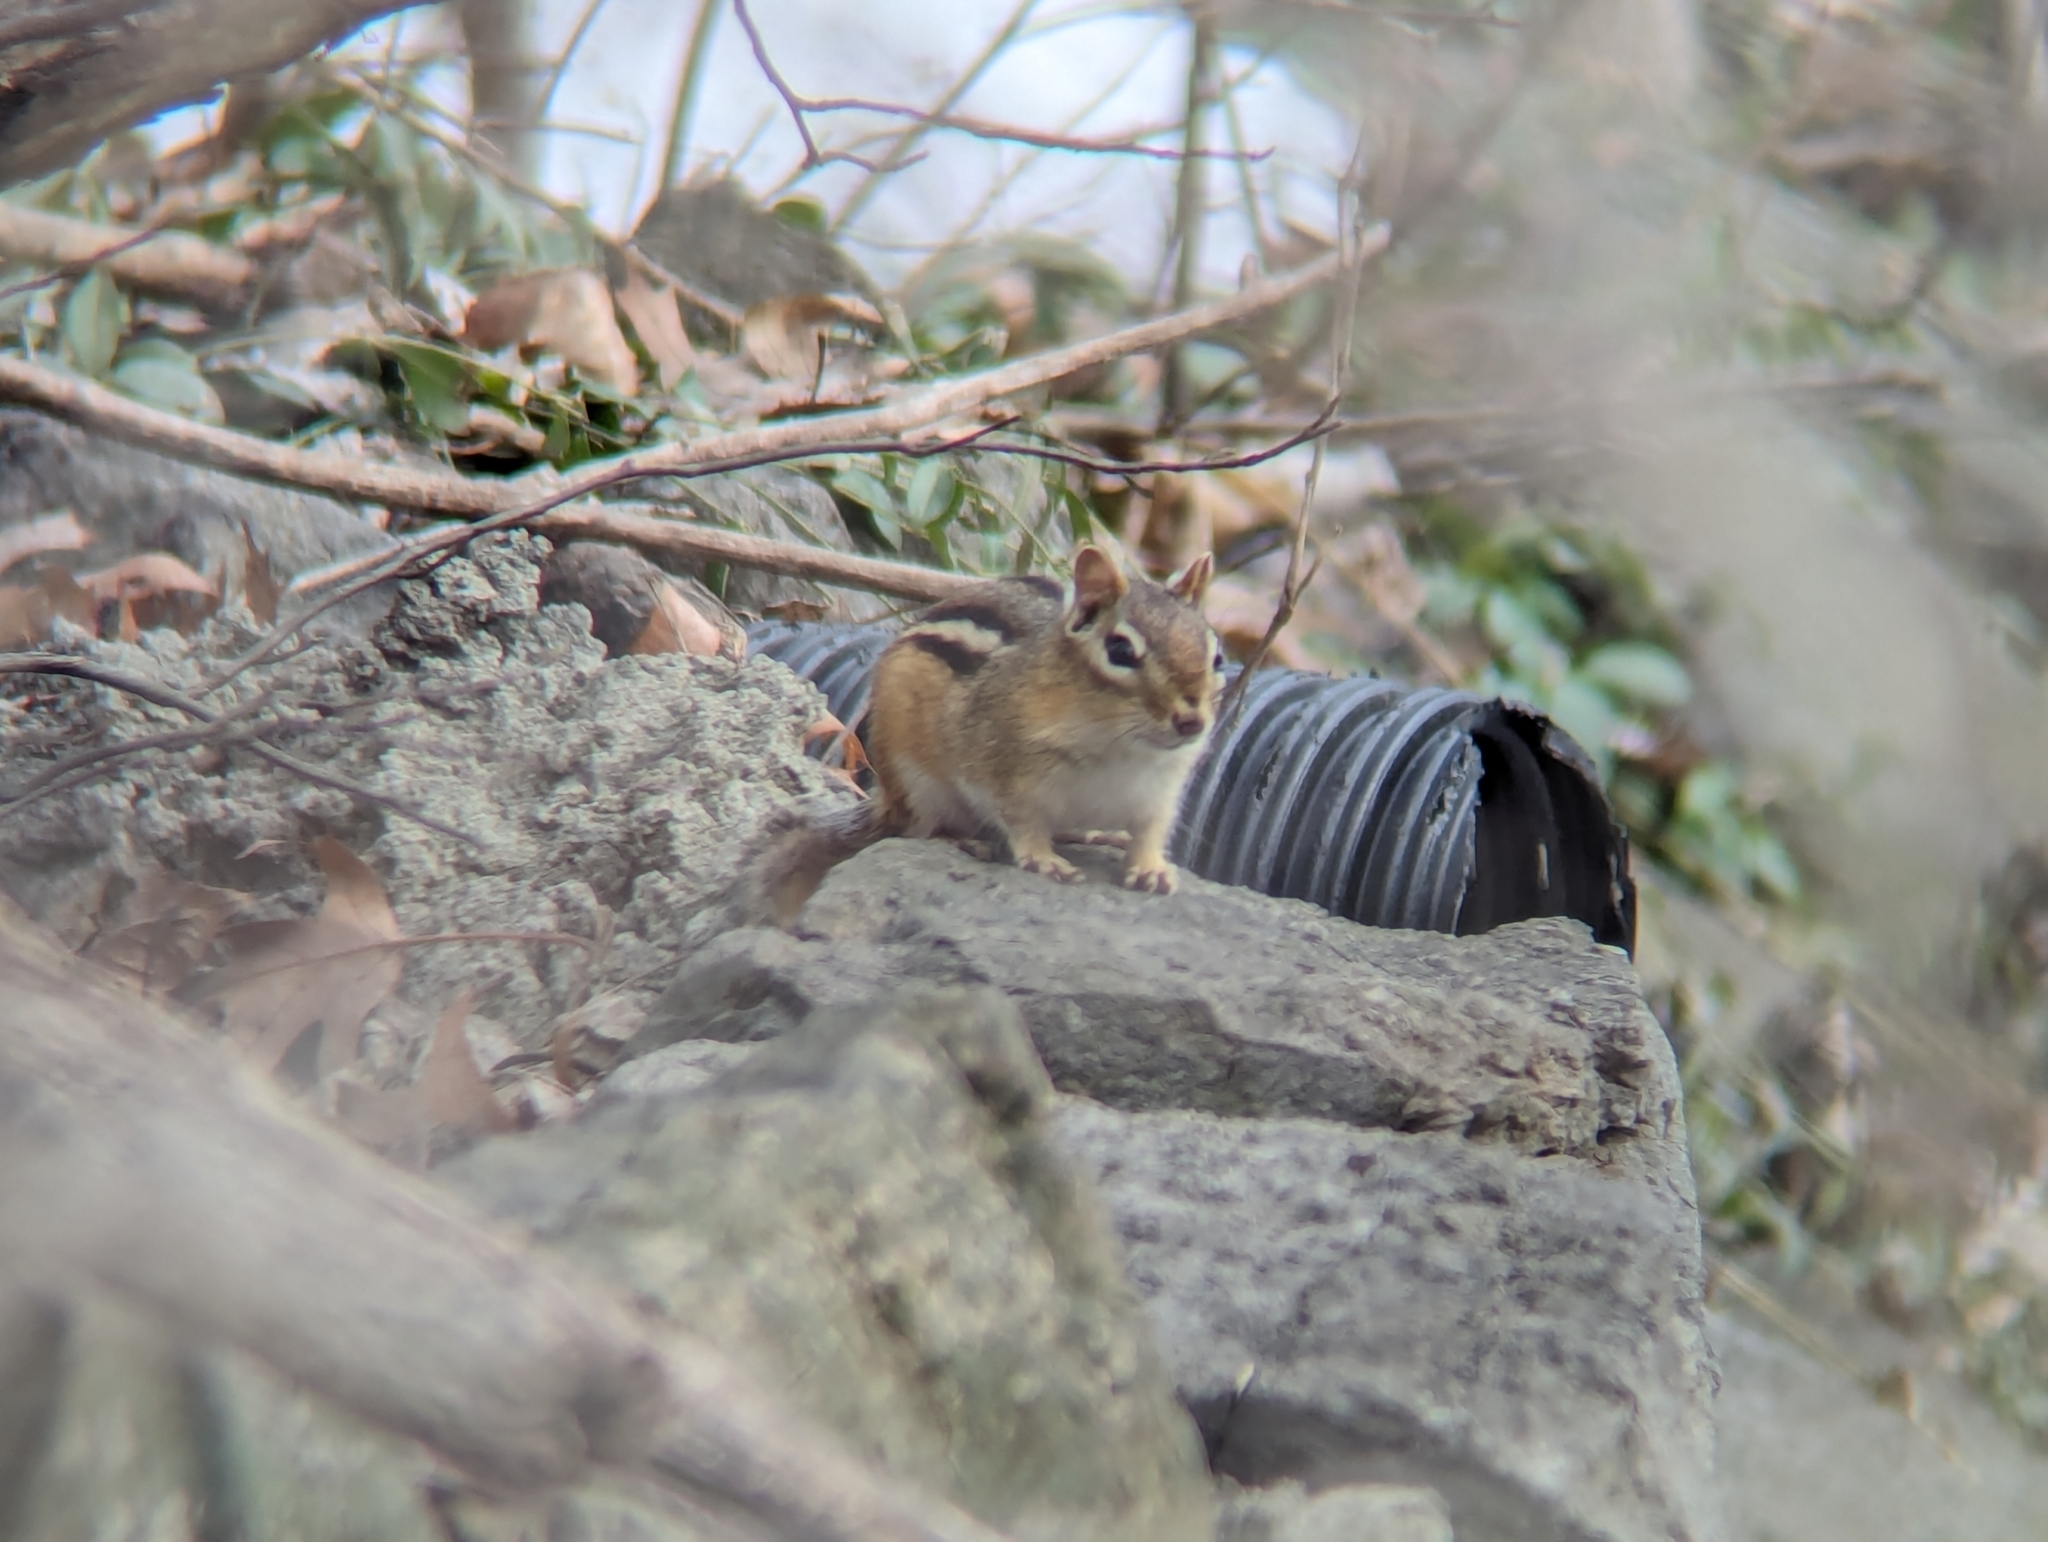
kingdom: Animalia
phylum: Chordata
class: Mammalia
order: Rodentia
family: Sciuridae
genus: Tamias
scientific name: Tamias striatus
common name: Eastern chipmunk
